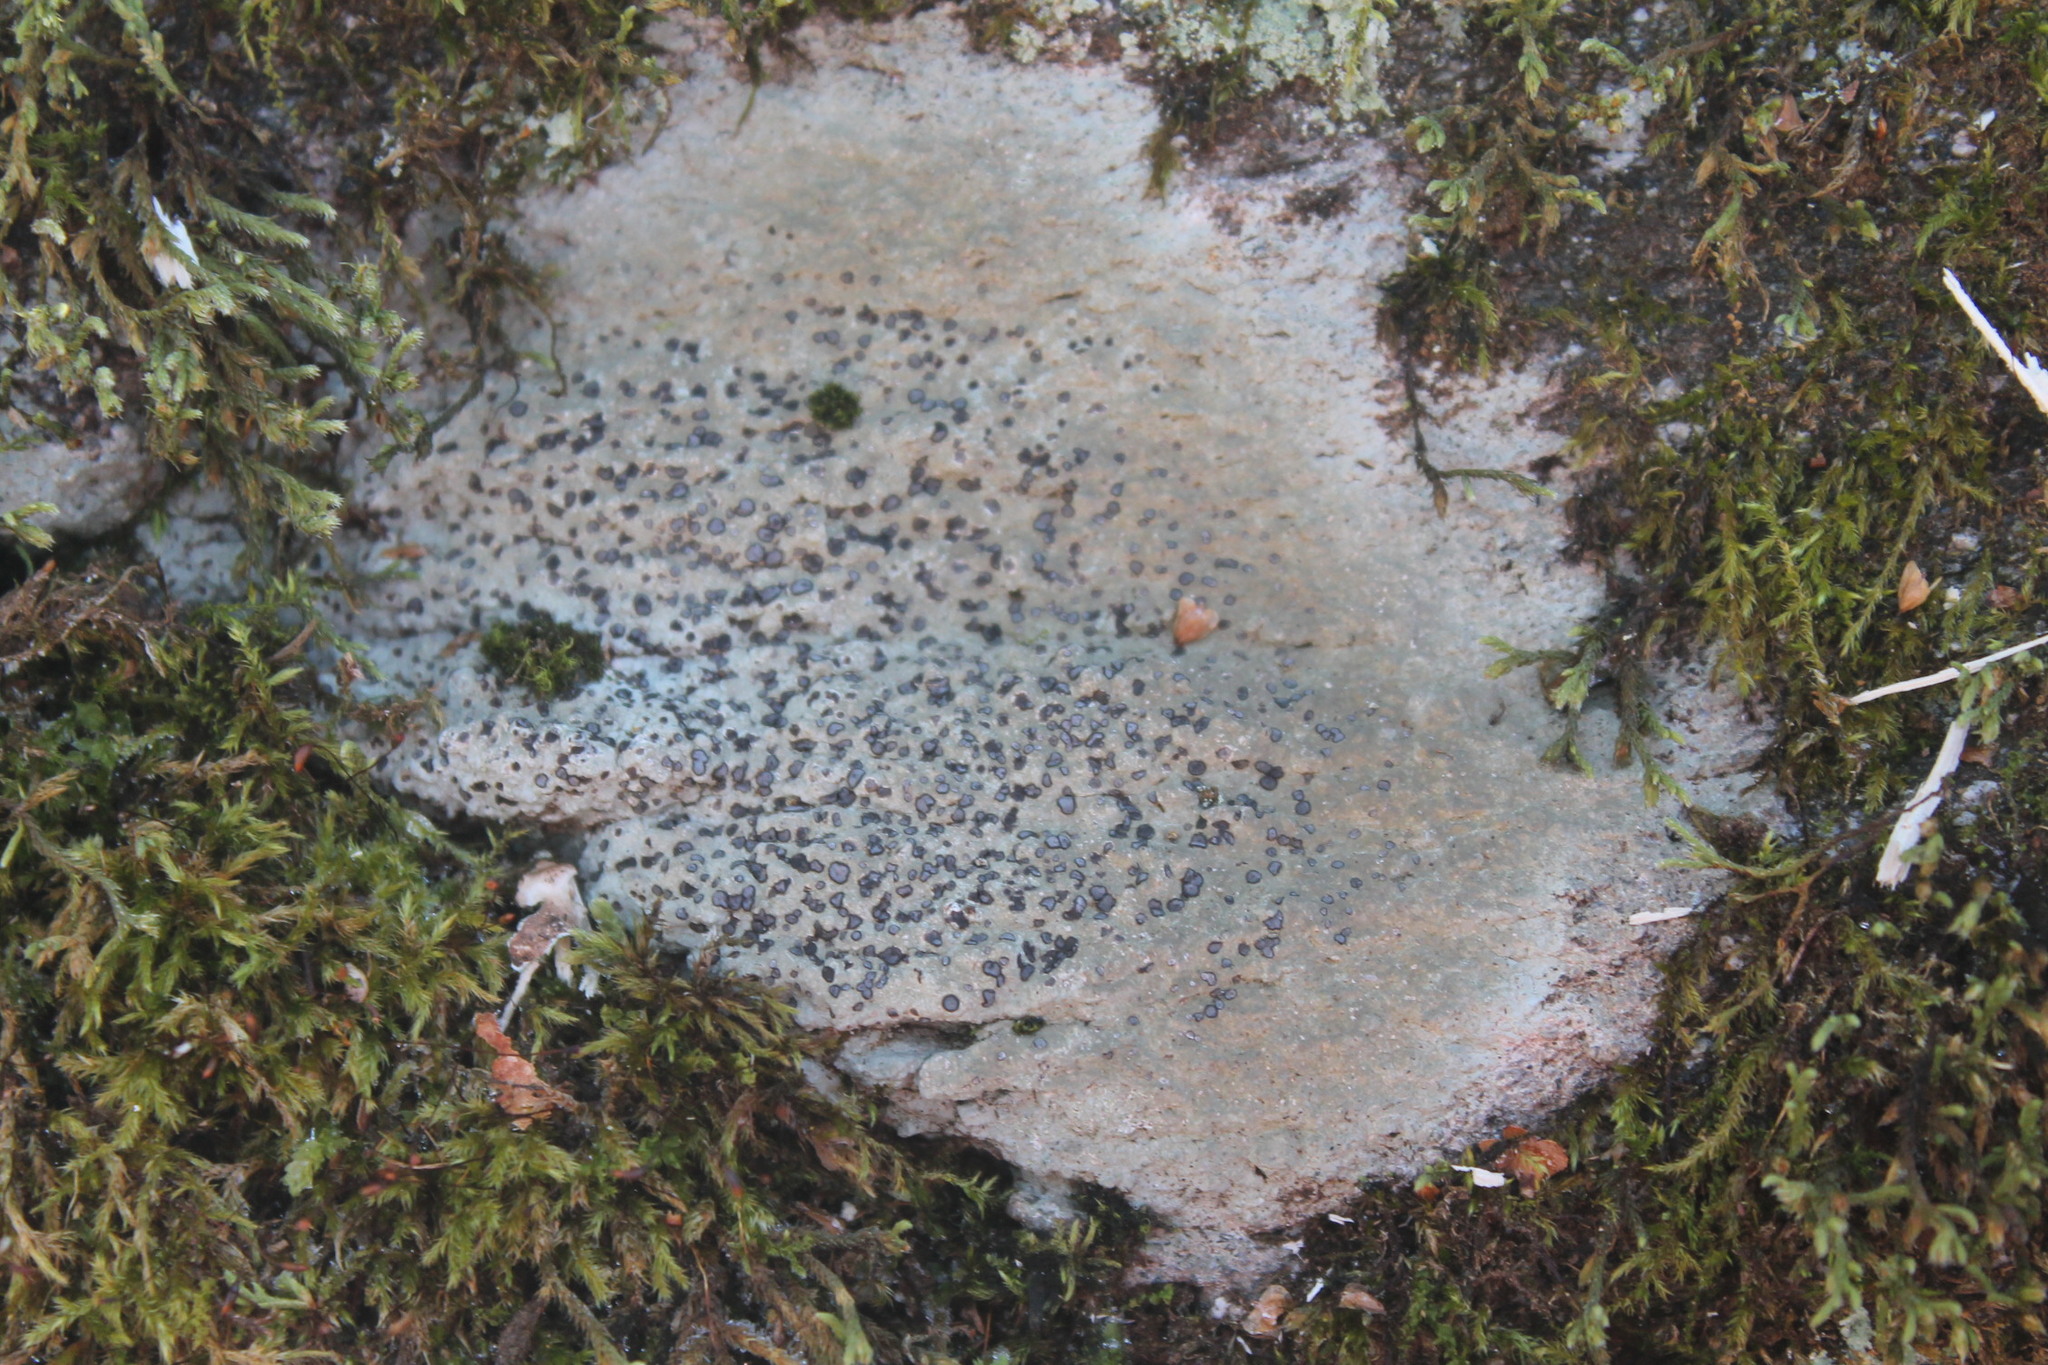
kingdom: Fungi
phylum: Ascomycota
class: Lecanoromycetes
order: Lecideales
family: Lecideaceae
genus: Porpidia
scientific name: Porpidia albocaerulescens
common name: Smokey-eyed boulder lichen
